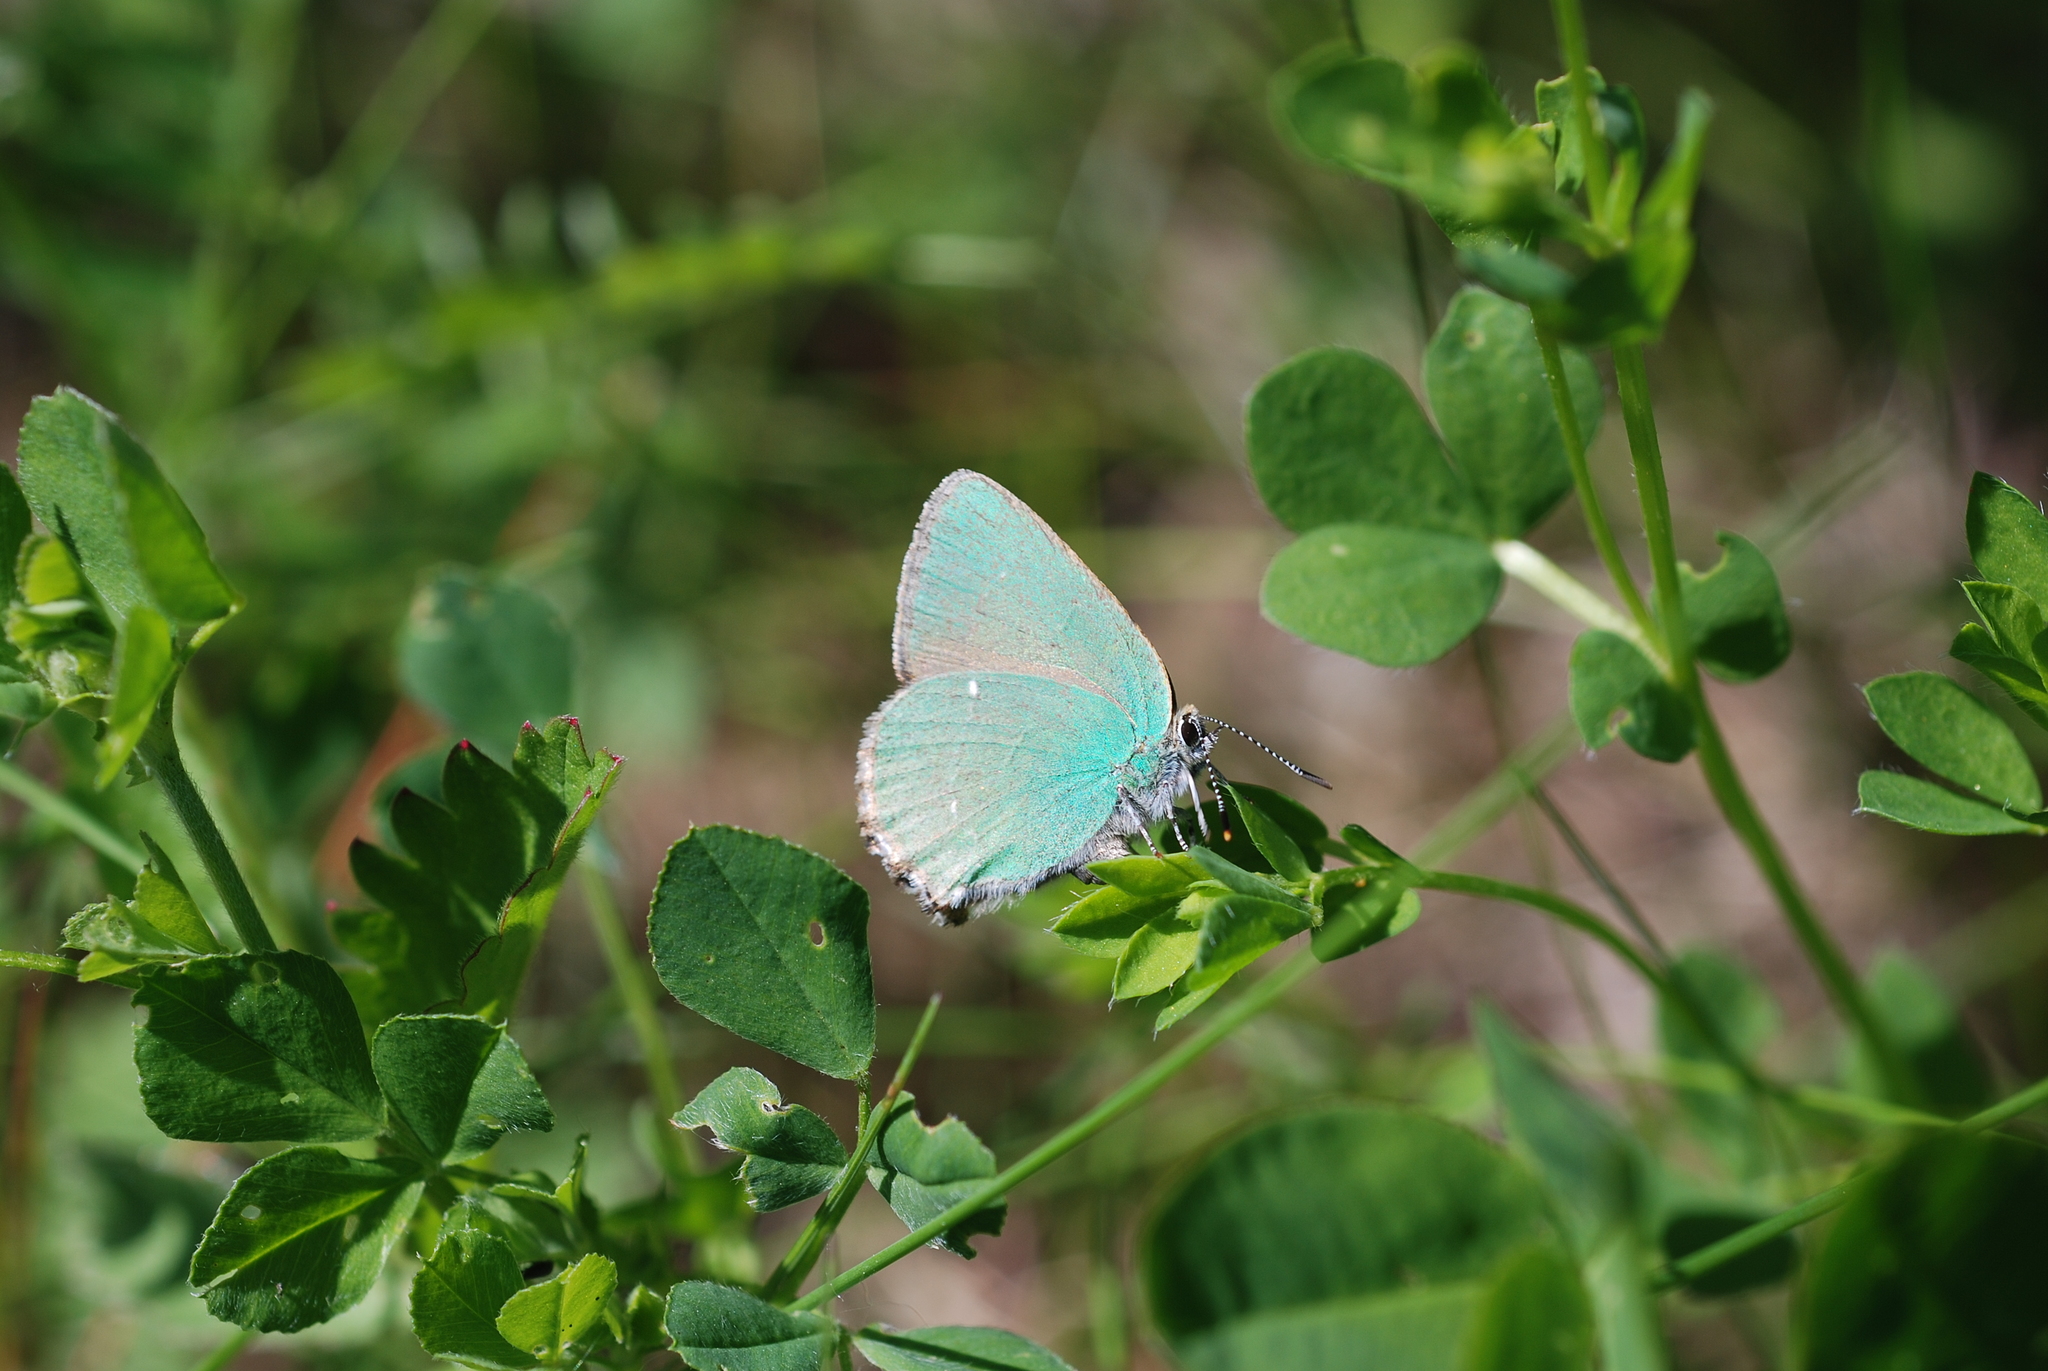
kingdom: Animalia
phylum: Arthropoda
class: Insecta
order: Lepidoptera
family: Lycaenidae
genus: Callophrys
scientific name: Callophrys rubi
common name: Green hairstreak
